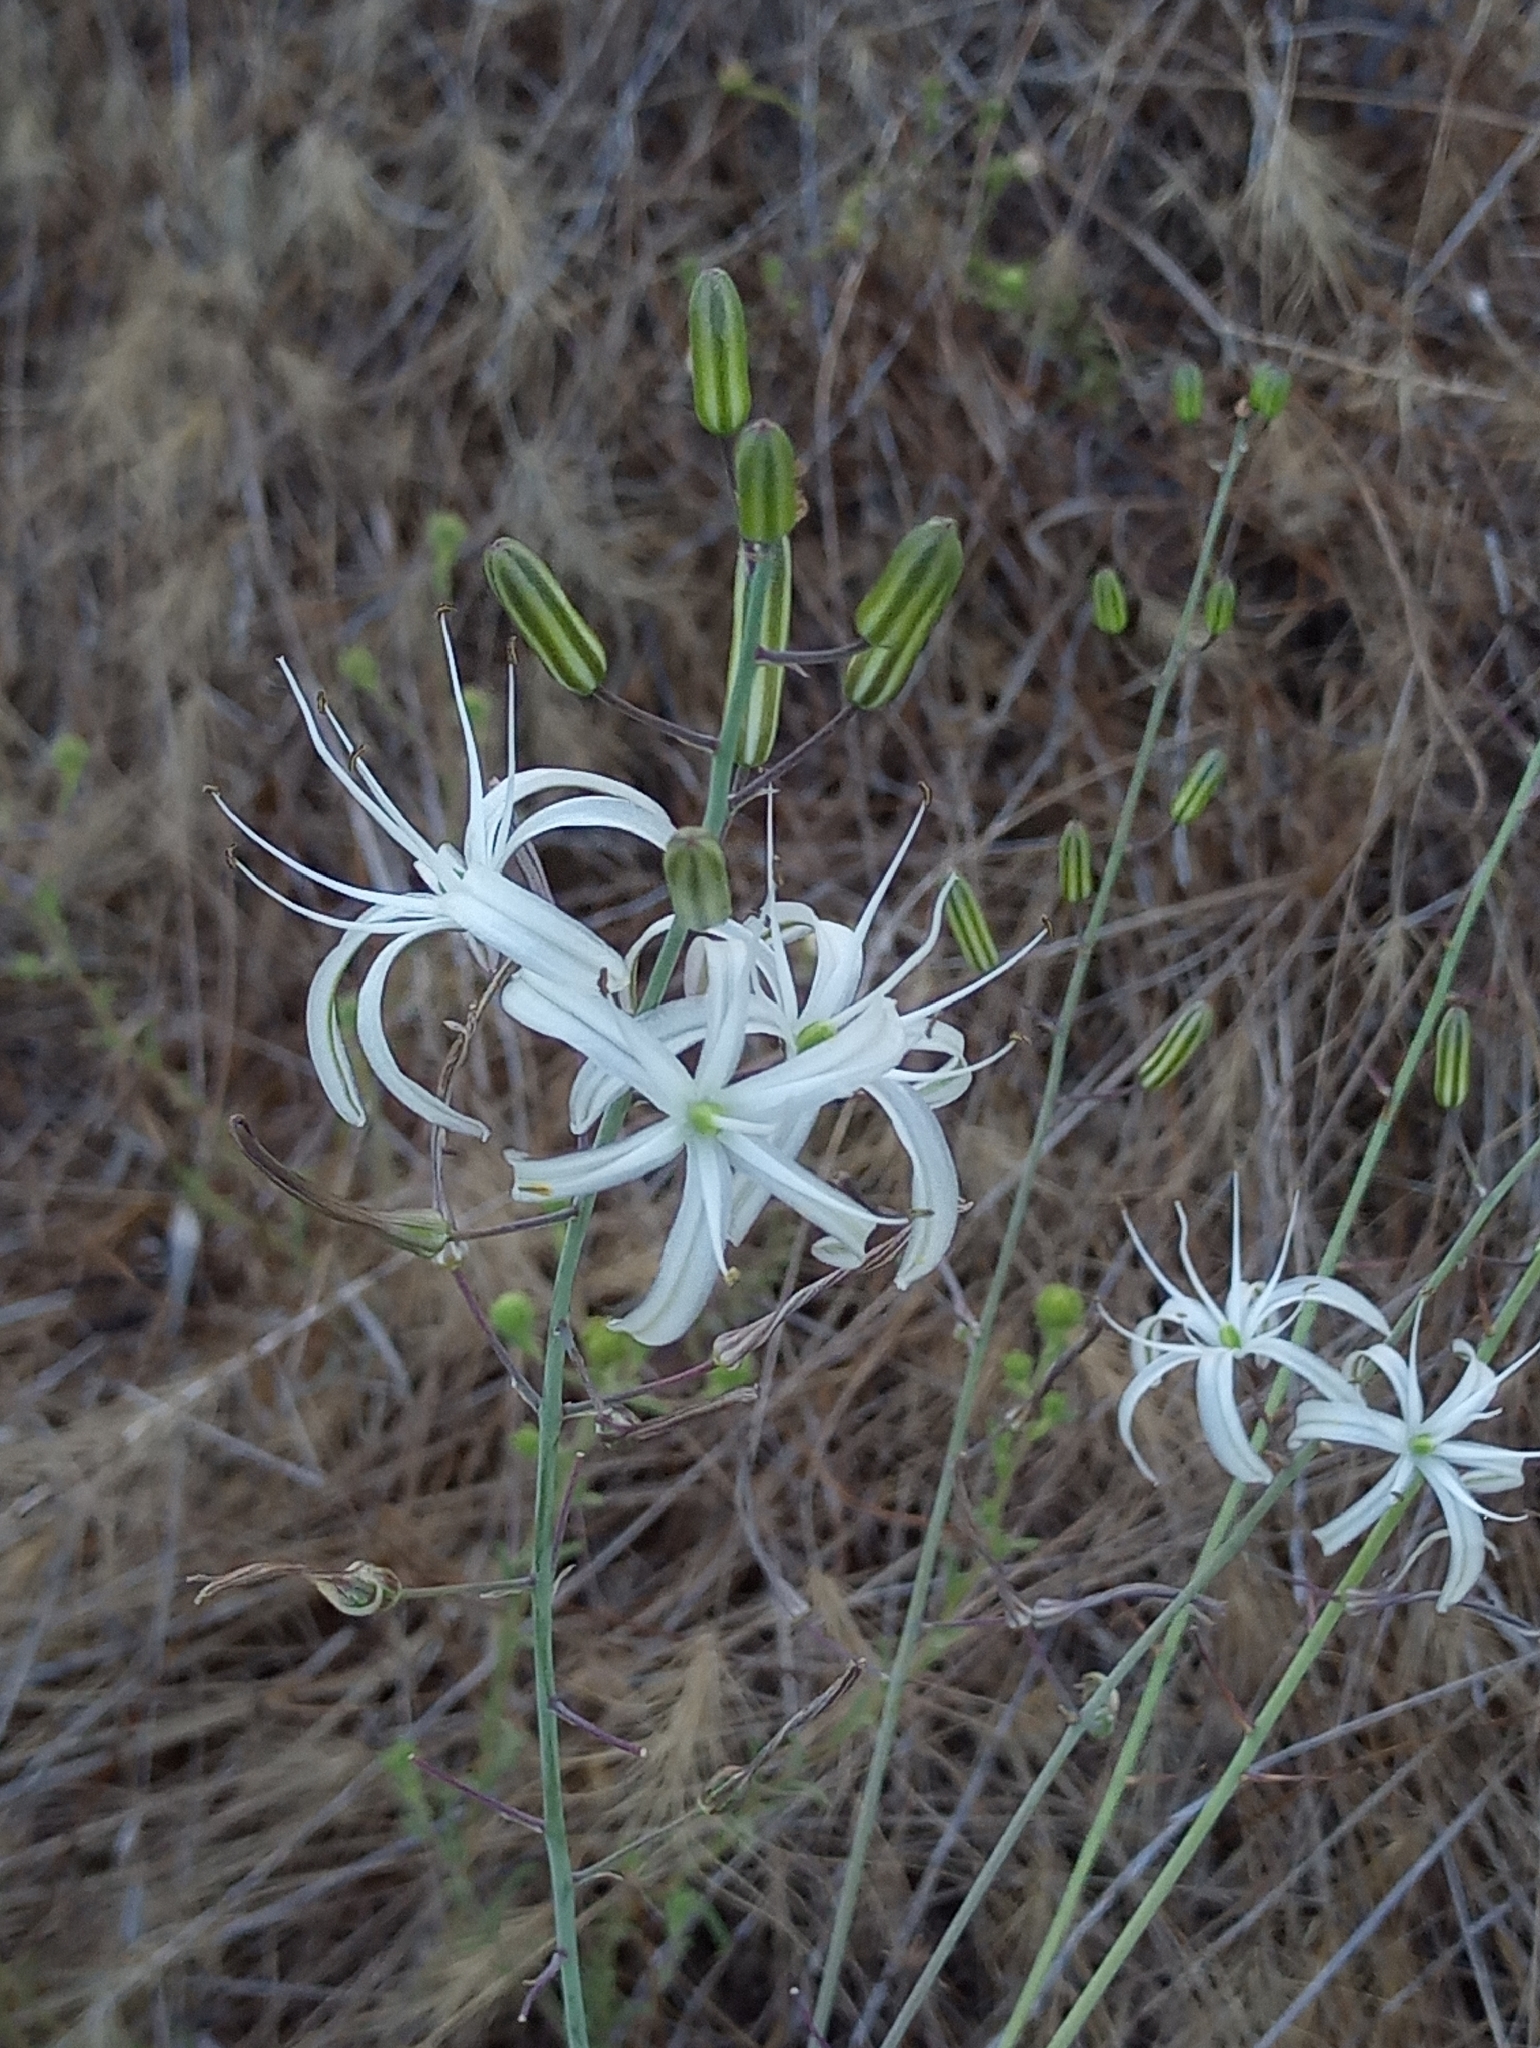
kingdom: Plantae
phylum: Tracheophyta
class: Liliopsida
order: Asparagales
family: Asparagaceae
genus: Chlorogalum
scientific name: Chlorogalum pomeridianum
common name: Amole
